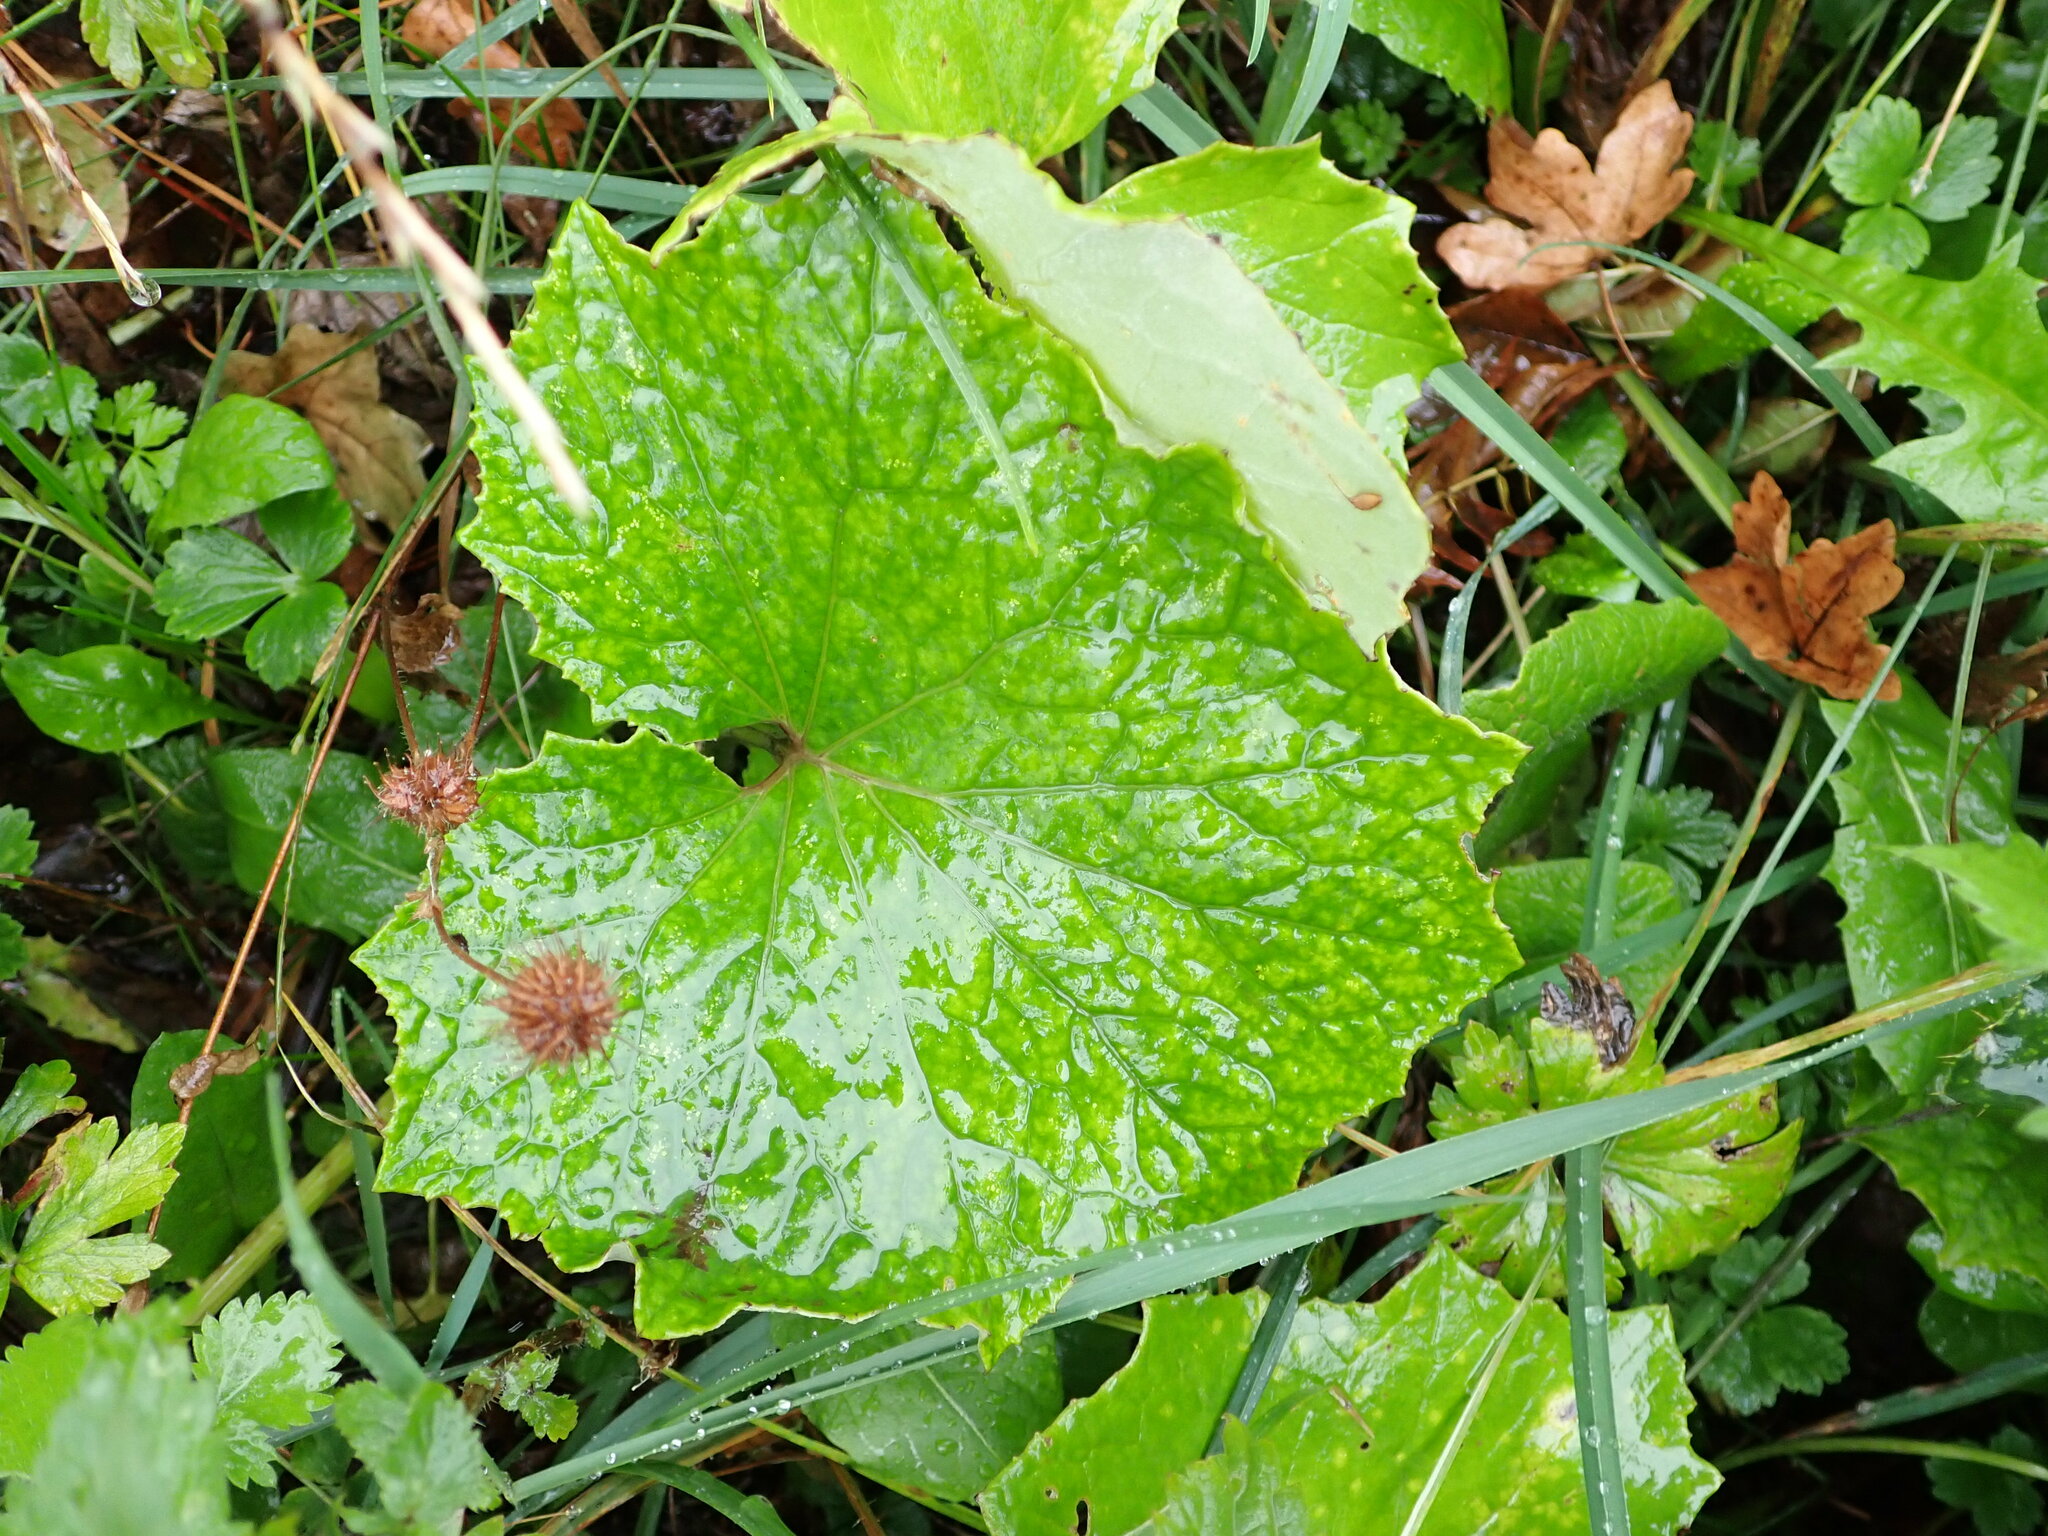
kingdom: Plantae
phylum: Tracheophyta
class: Magnoliopsida
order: Asterales
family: Asteraceae
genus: Tussilago
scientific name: Tussilago farfara
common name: Coltsfoot
